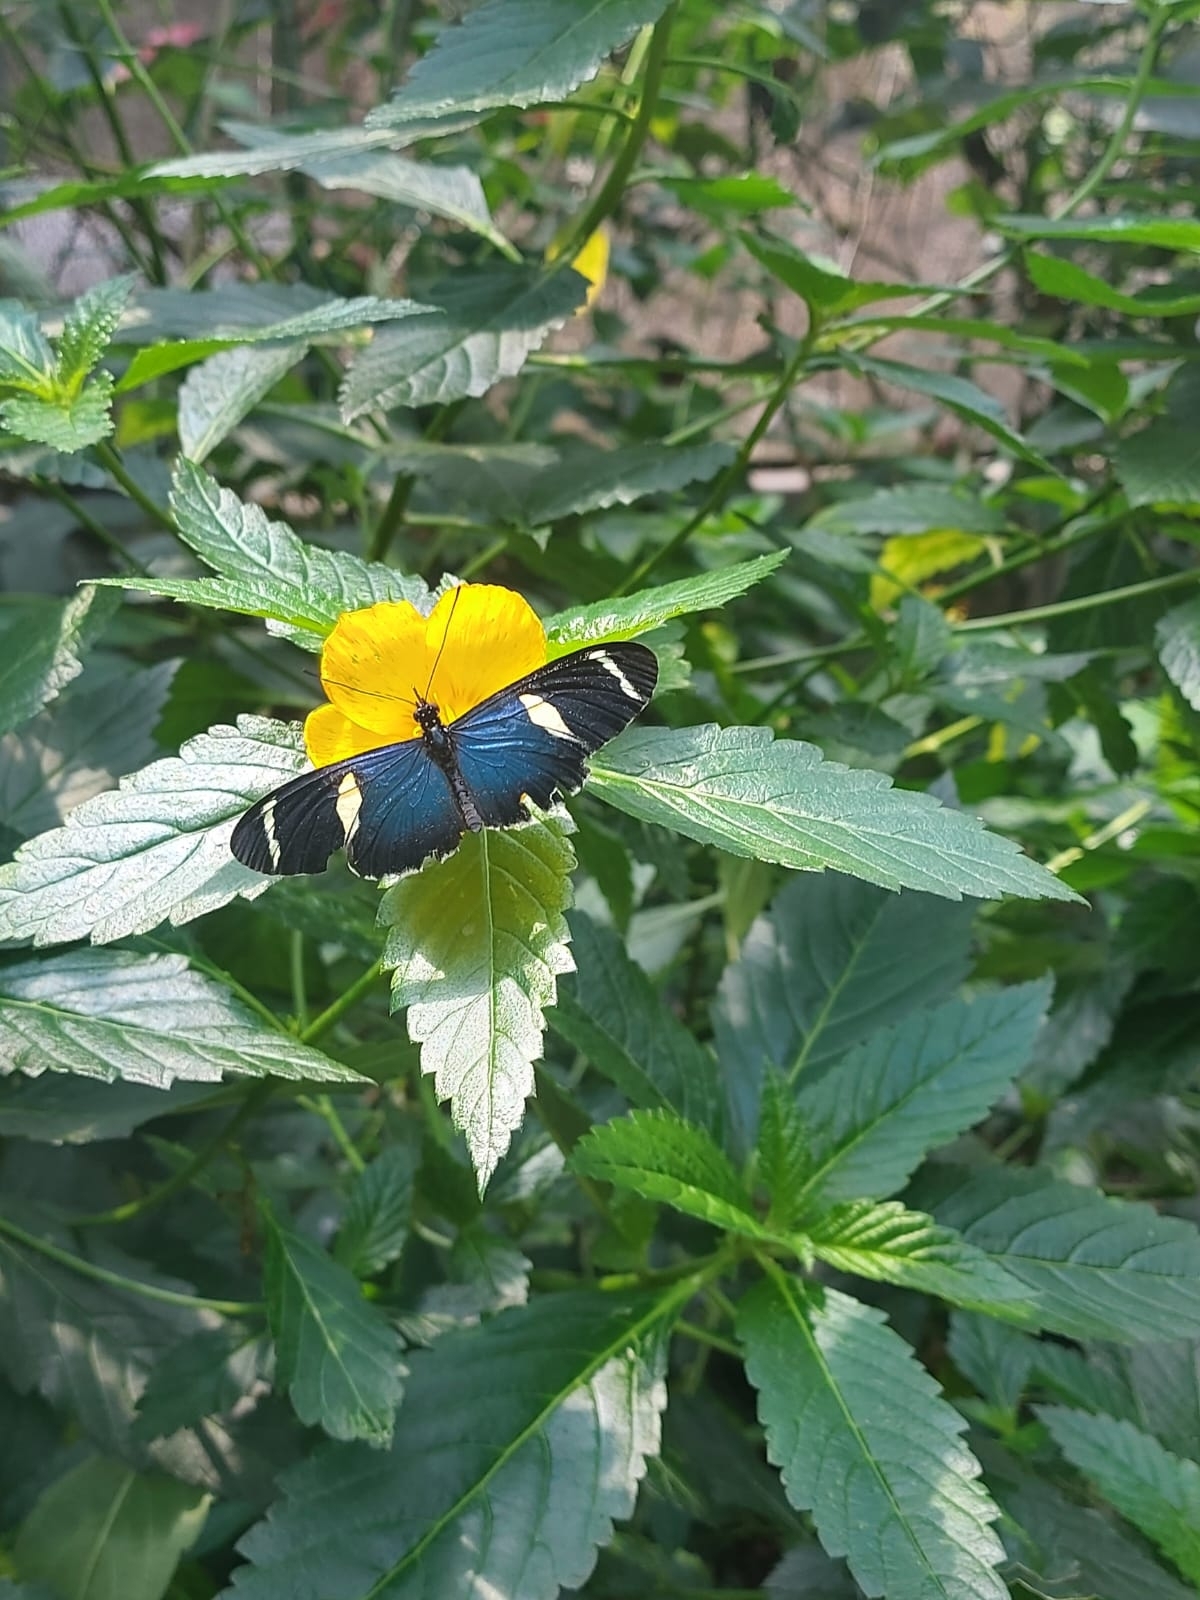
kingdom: Animalia
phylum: Arthropoda
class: Insecta
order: Lepidoptera
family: Nymphalidae
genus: Heliconius
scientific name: Heliconius sara
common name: Sara longwing
